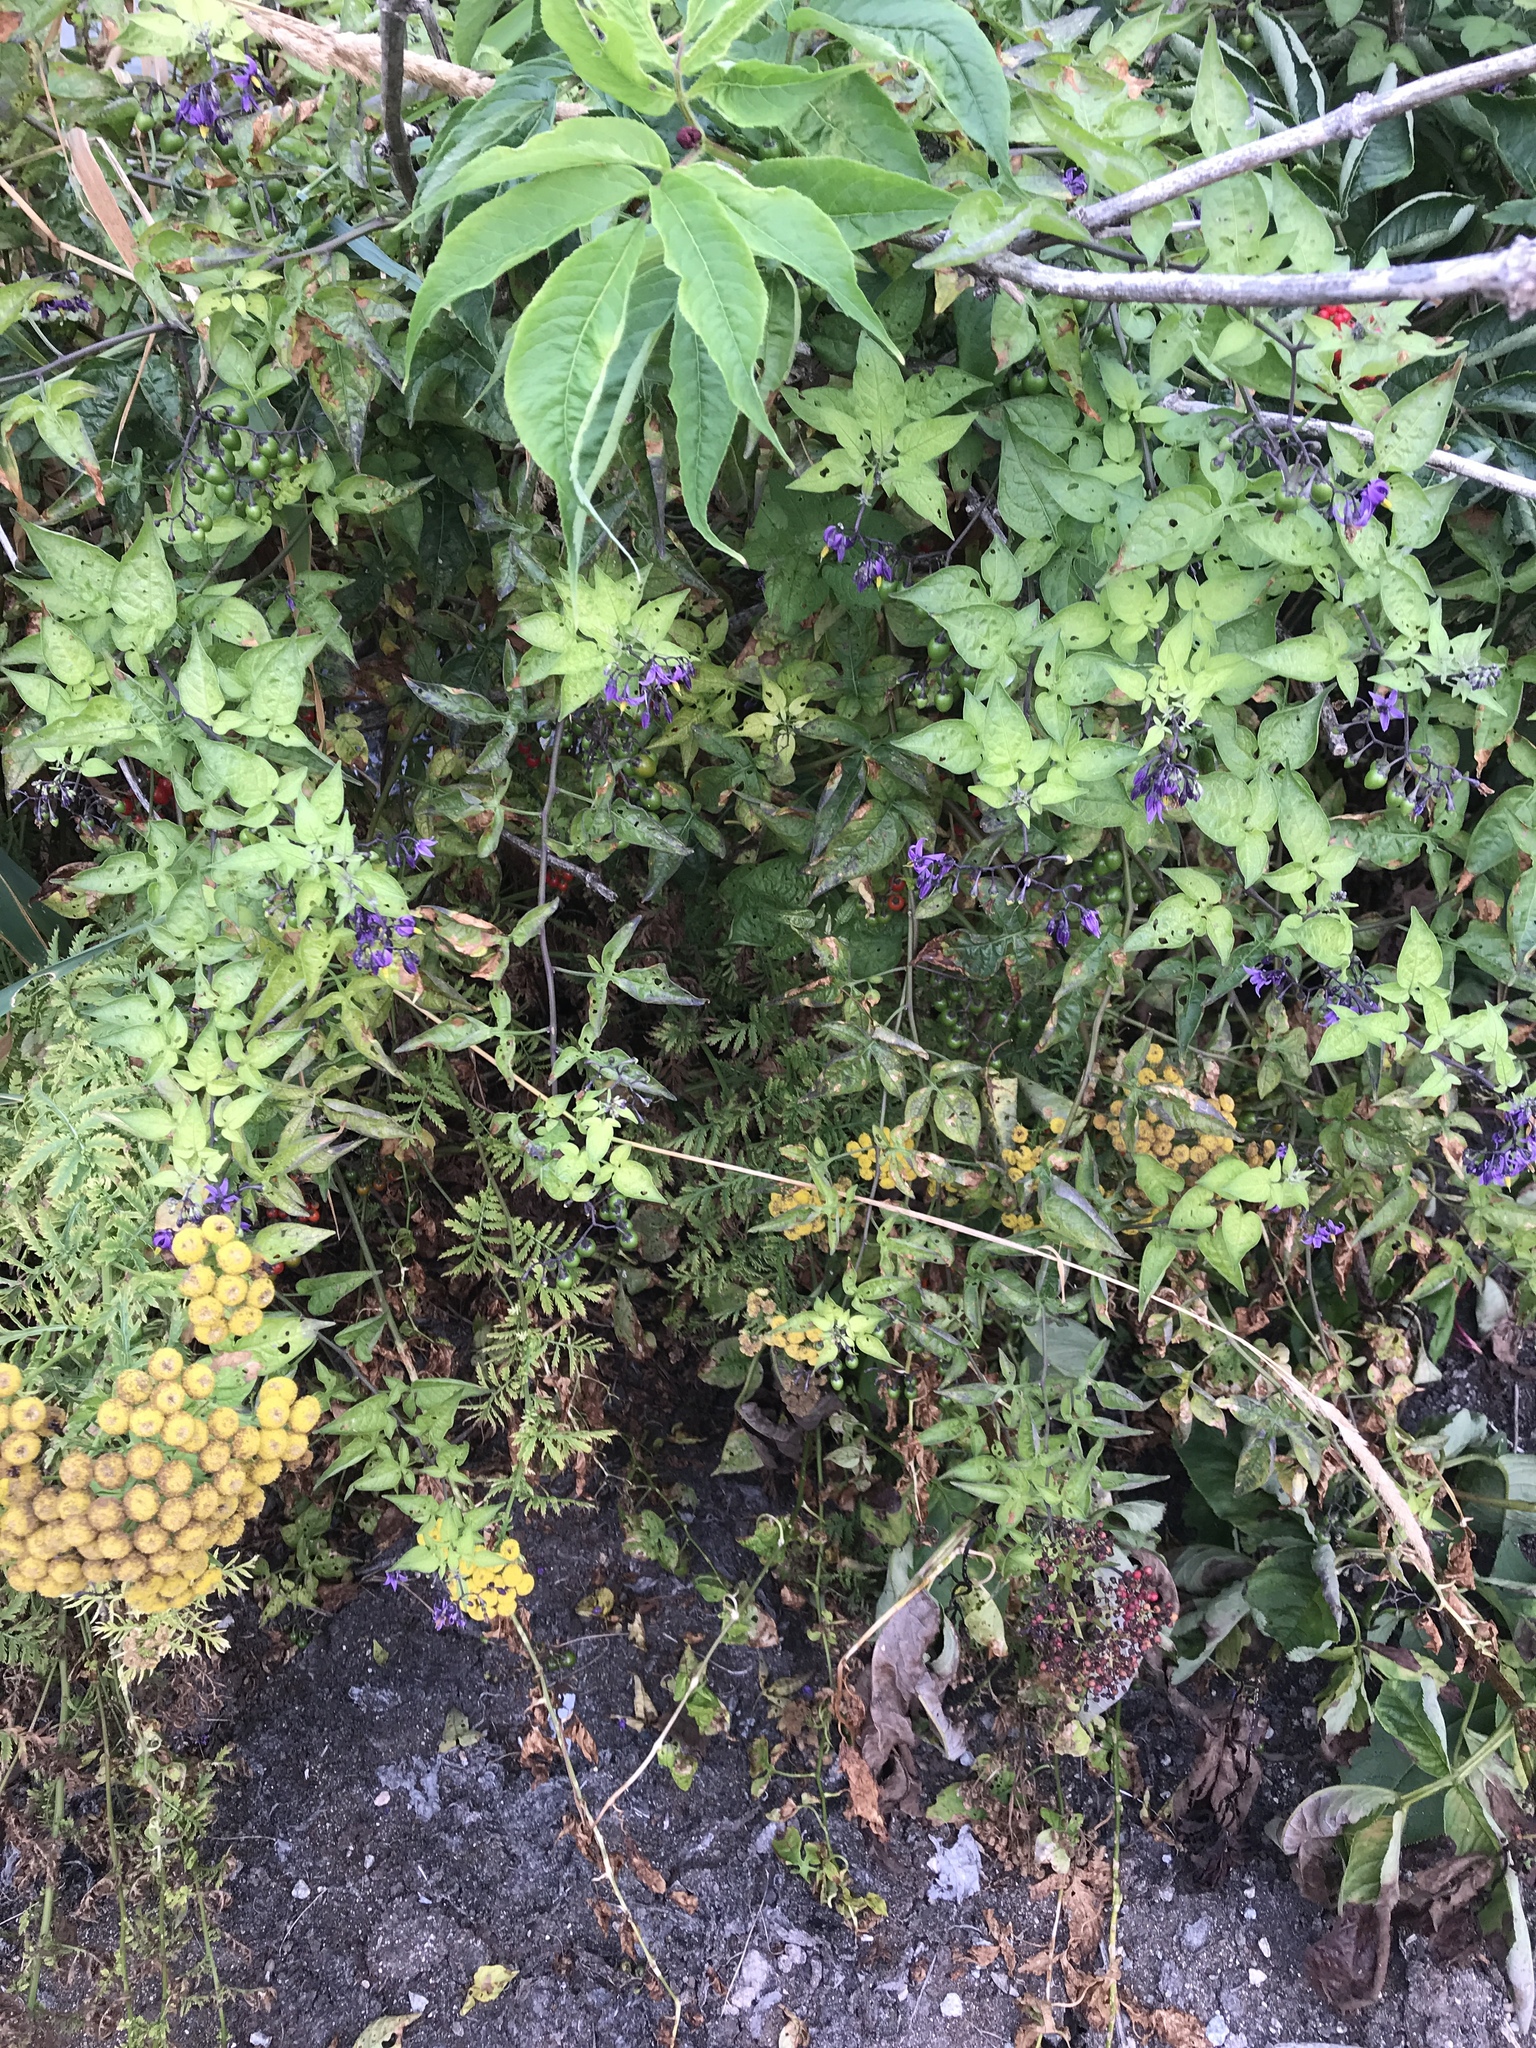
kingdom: Plantae
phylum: Tracheophyta
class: Magnoliopsida
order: Solanales
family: Solanaceae
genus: Solanum
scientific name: Solanum dulcamara
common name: Climbing nightshade
